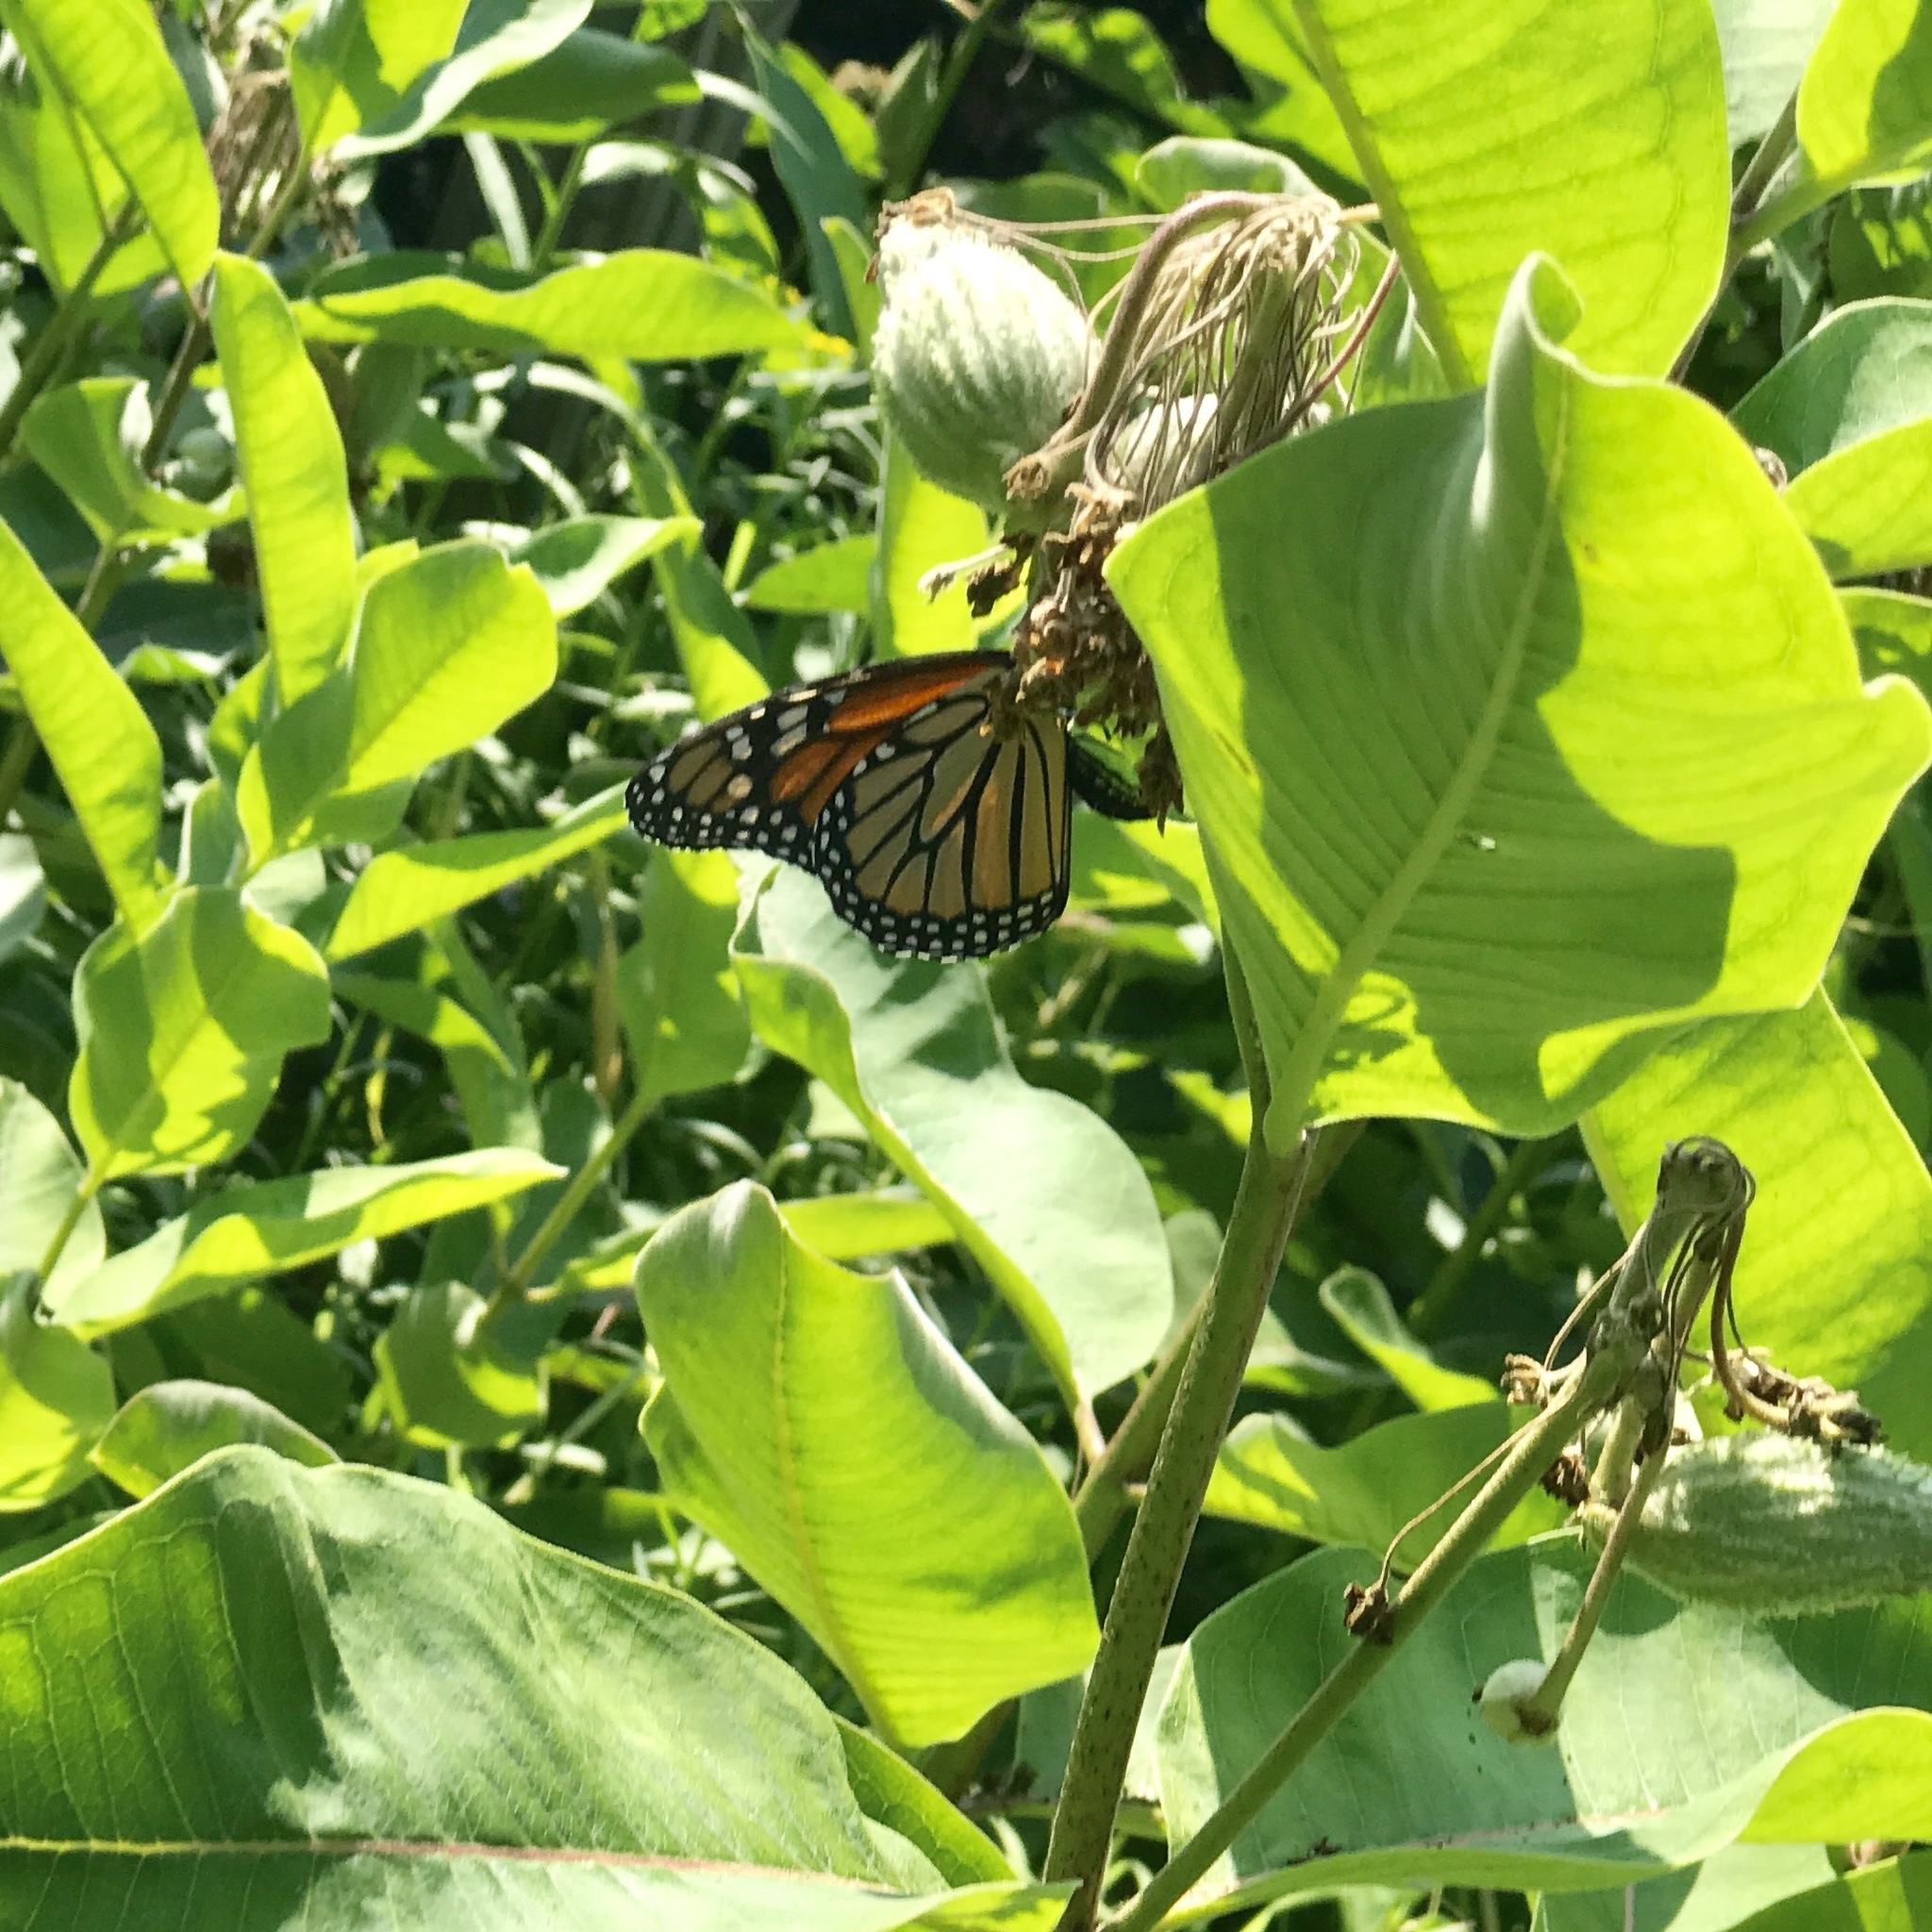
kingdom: Animalia
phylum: Arthropoda
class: Insecta
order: Lepidoptera
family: Nymphalidae
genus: Danaus
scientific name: Danaus plexippus
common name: Monarch
